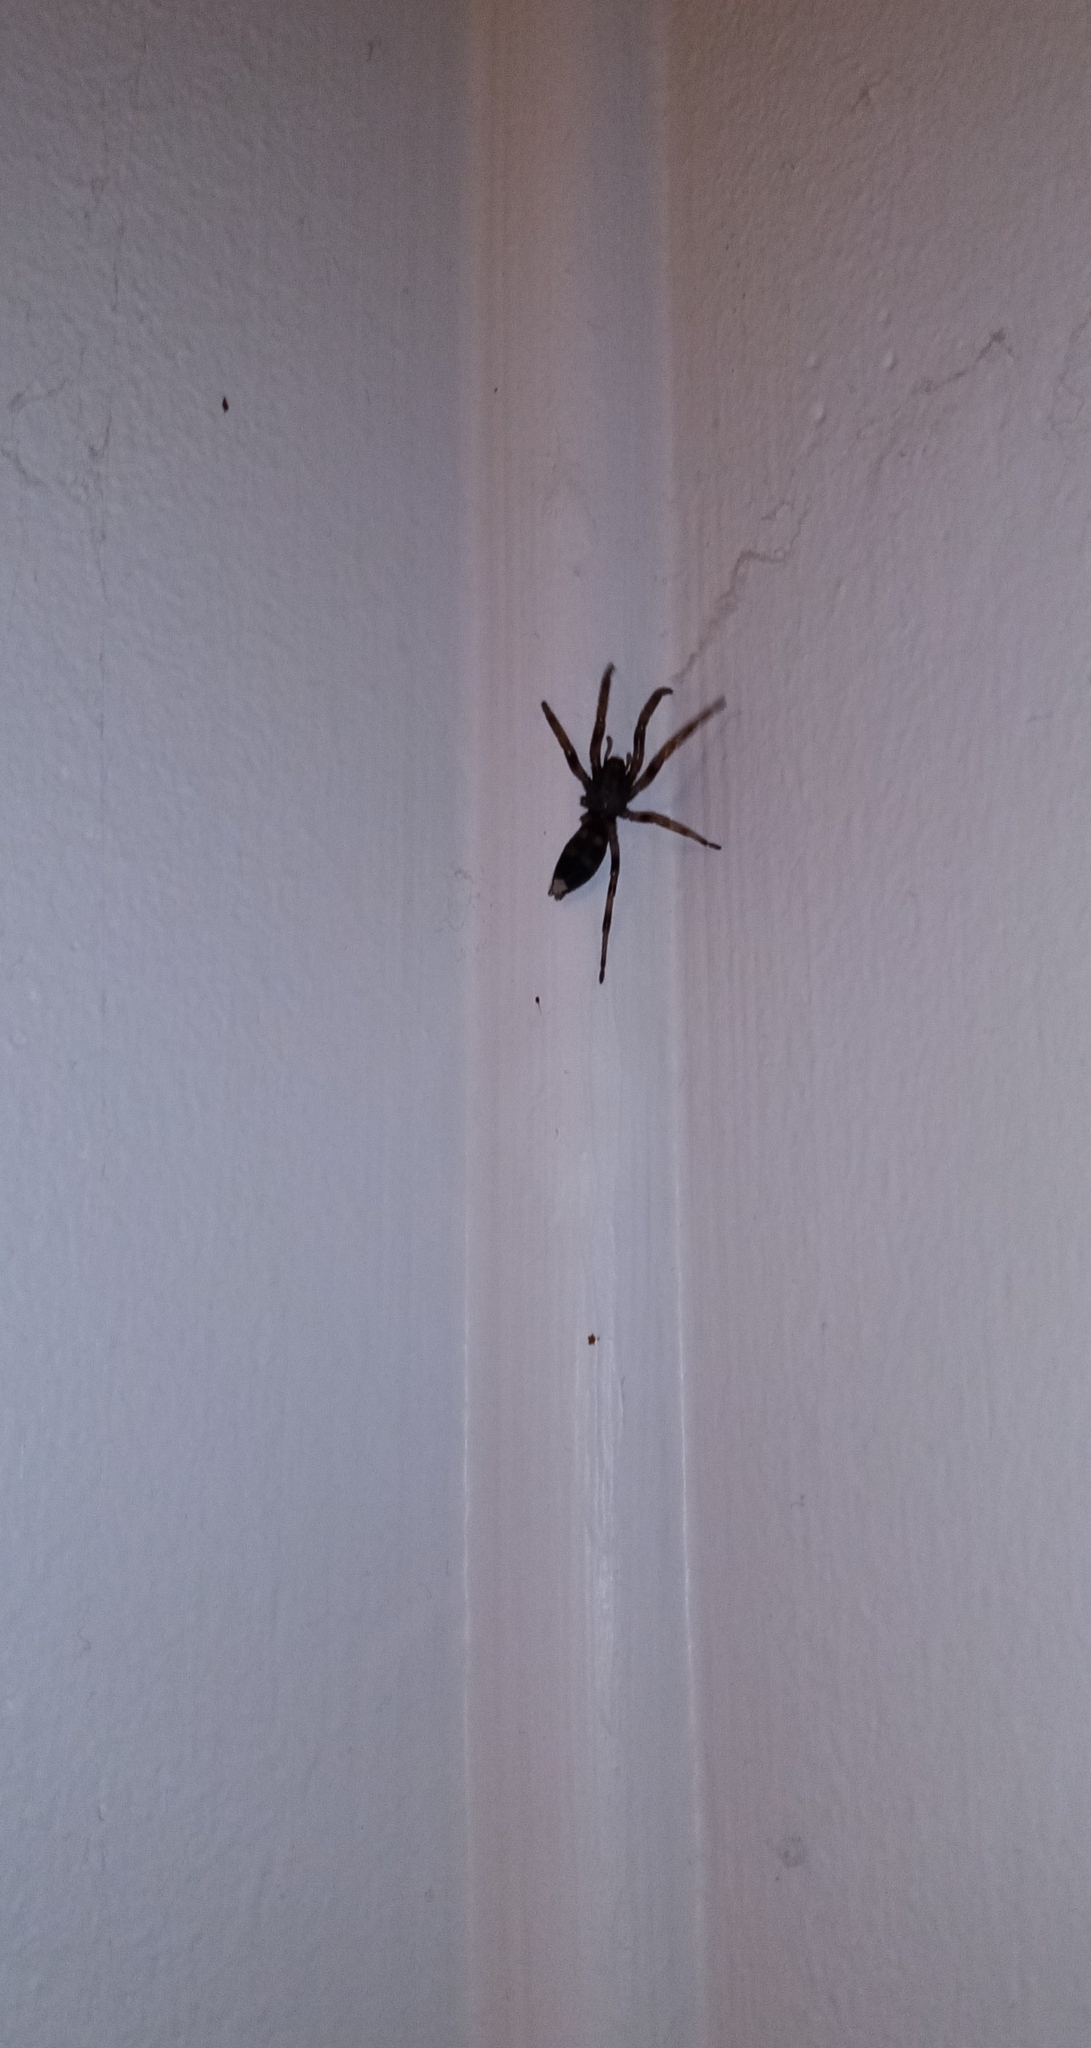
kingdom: Animalia
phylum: Arthropoda
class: Arachnida
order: Araneae
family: Lamponidae
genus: Lampona
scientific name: Lampona murina
